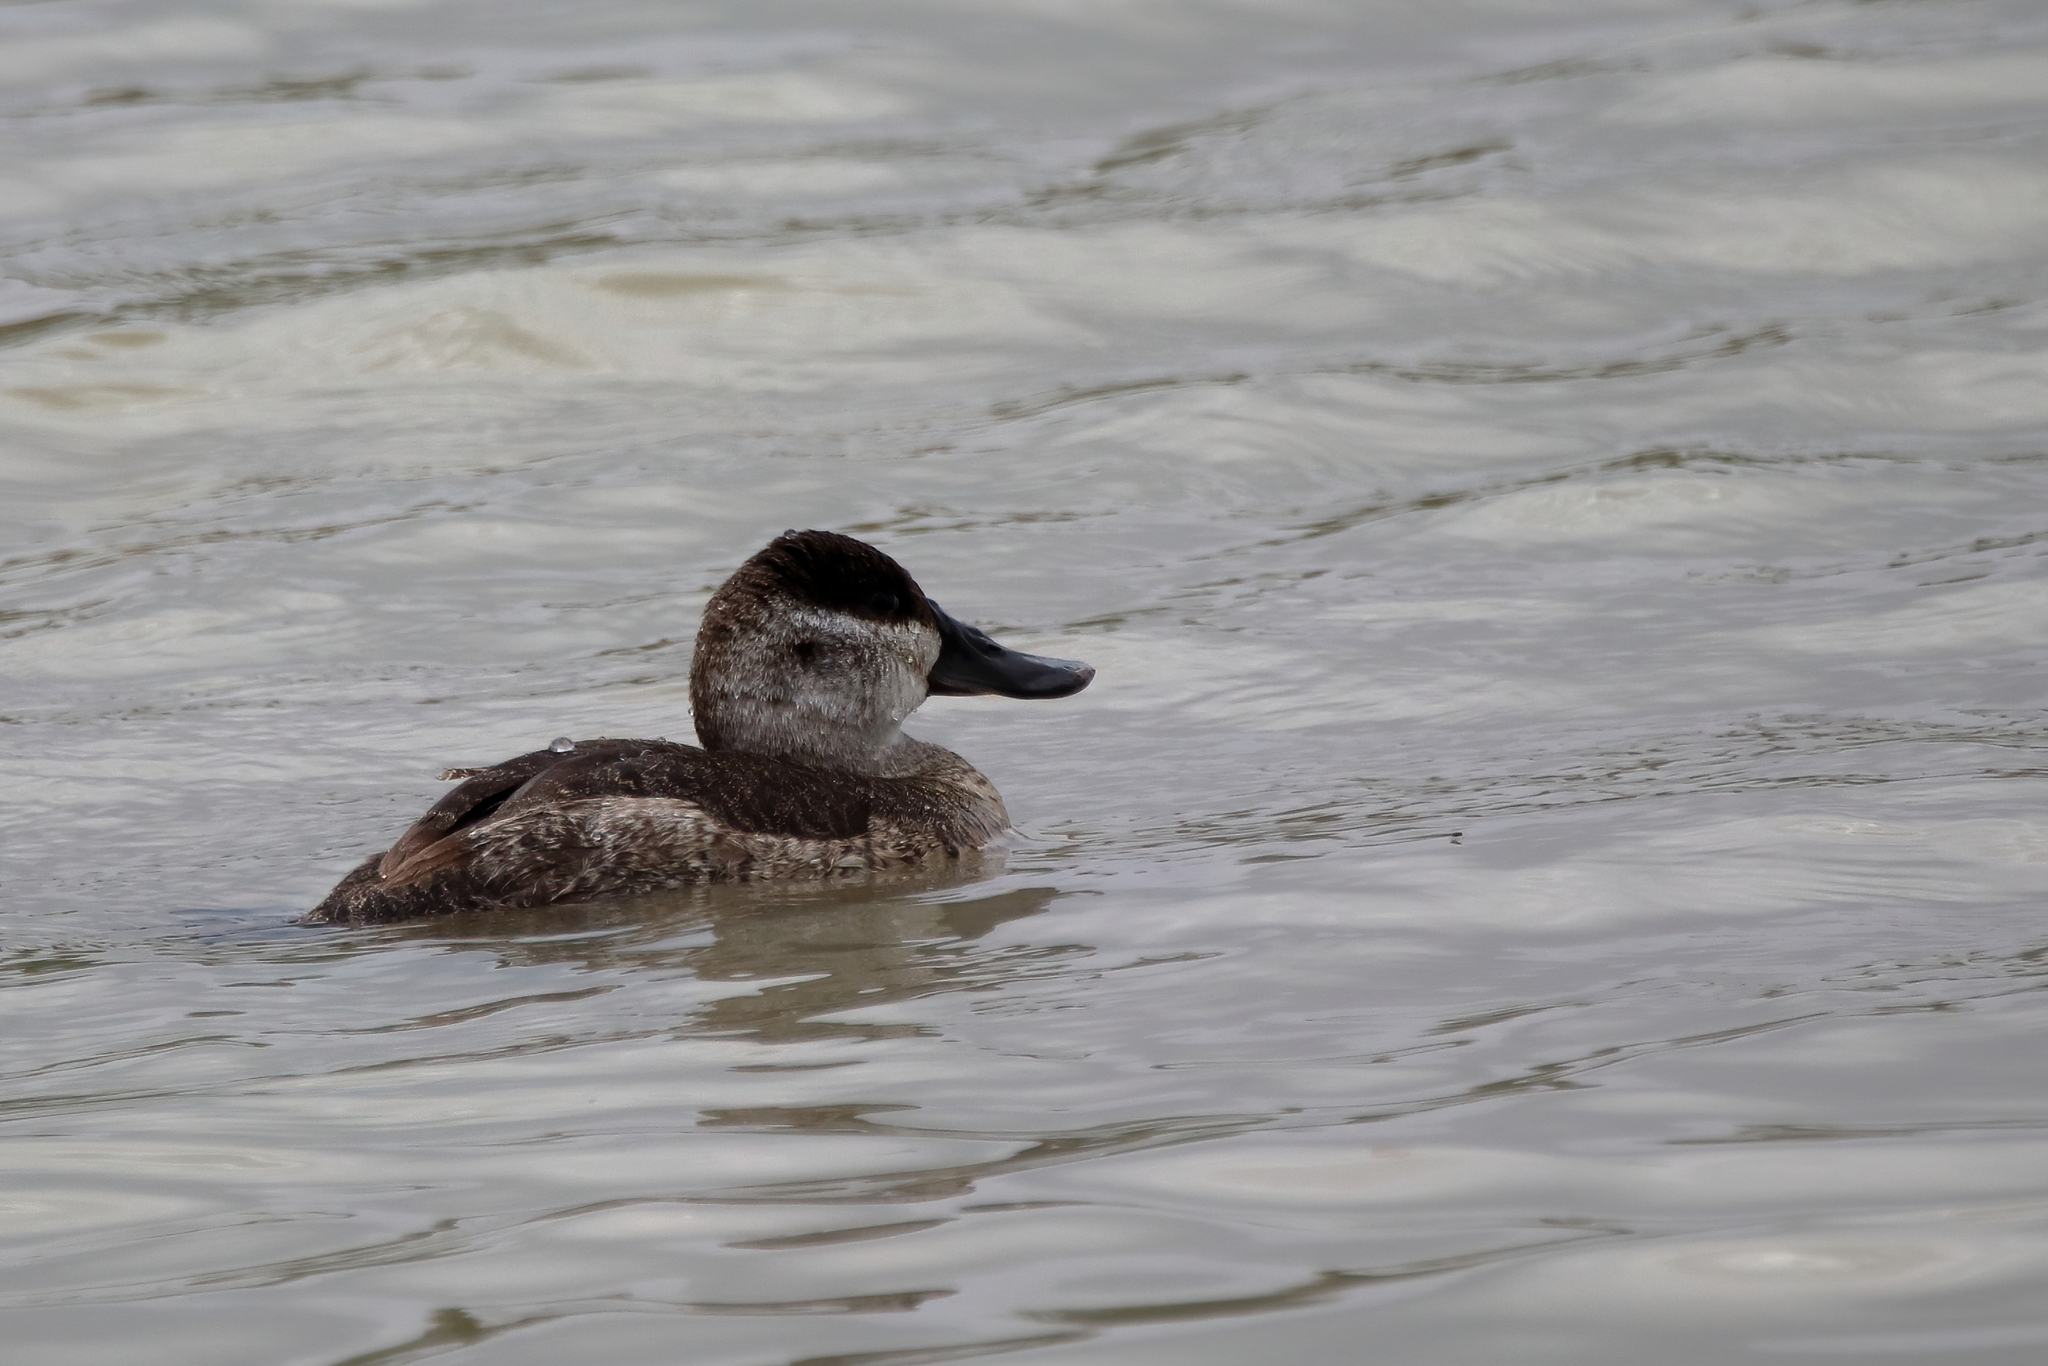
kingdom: Animalia
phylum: Chordata
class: Aves
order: Anseriformes
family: Anatidae
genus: Oxyura
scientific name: Oxyura jamaicensis
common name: Ruddy duck
